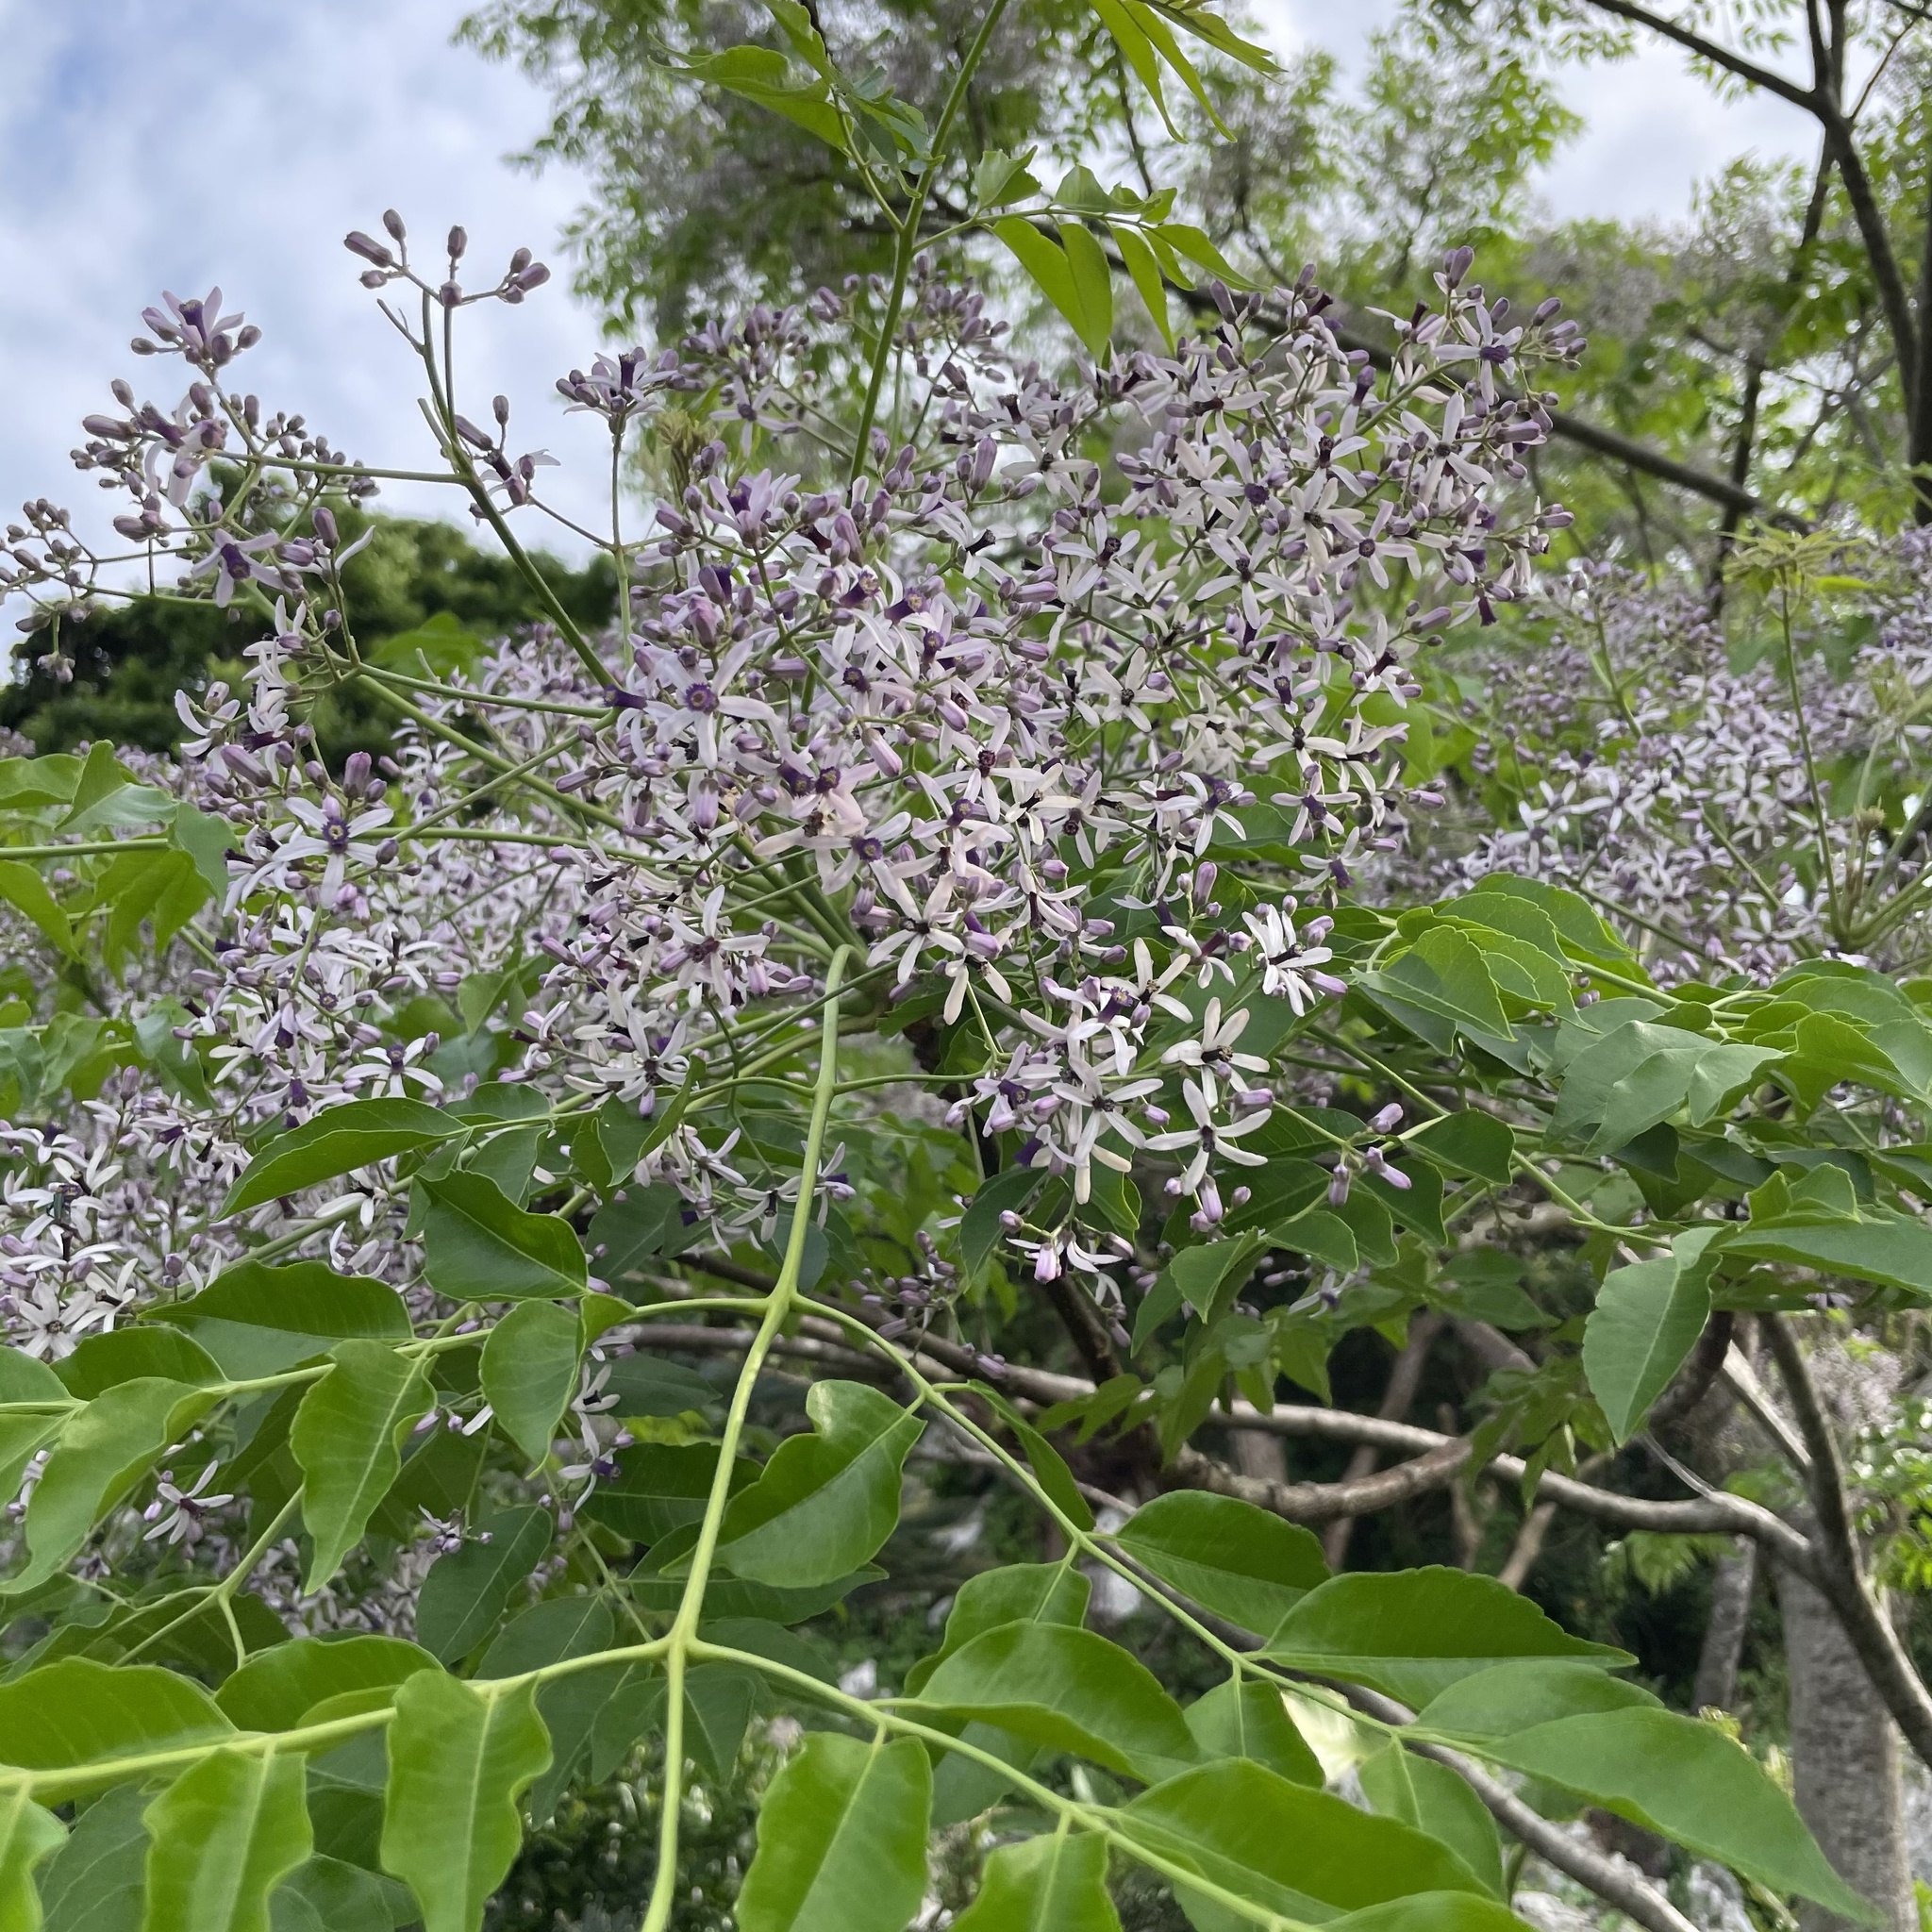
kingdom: Plantae
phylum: Tracheophyta
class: Magnoliopsida
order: Sapindales
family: Meliaceae
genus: Melia
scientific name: Melia azedarach
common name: Chinaberrytree
